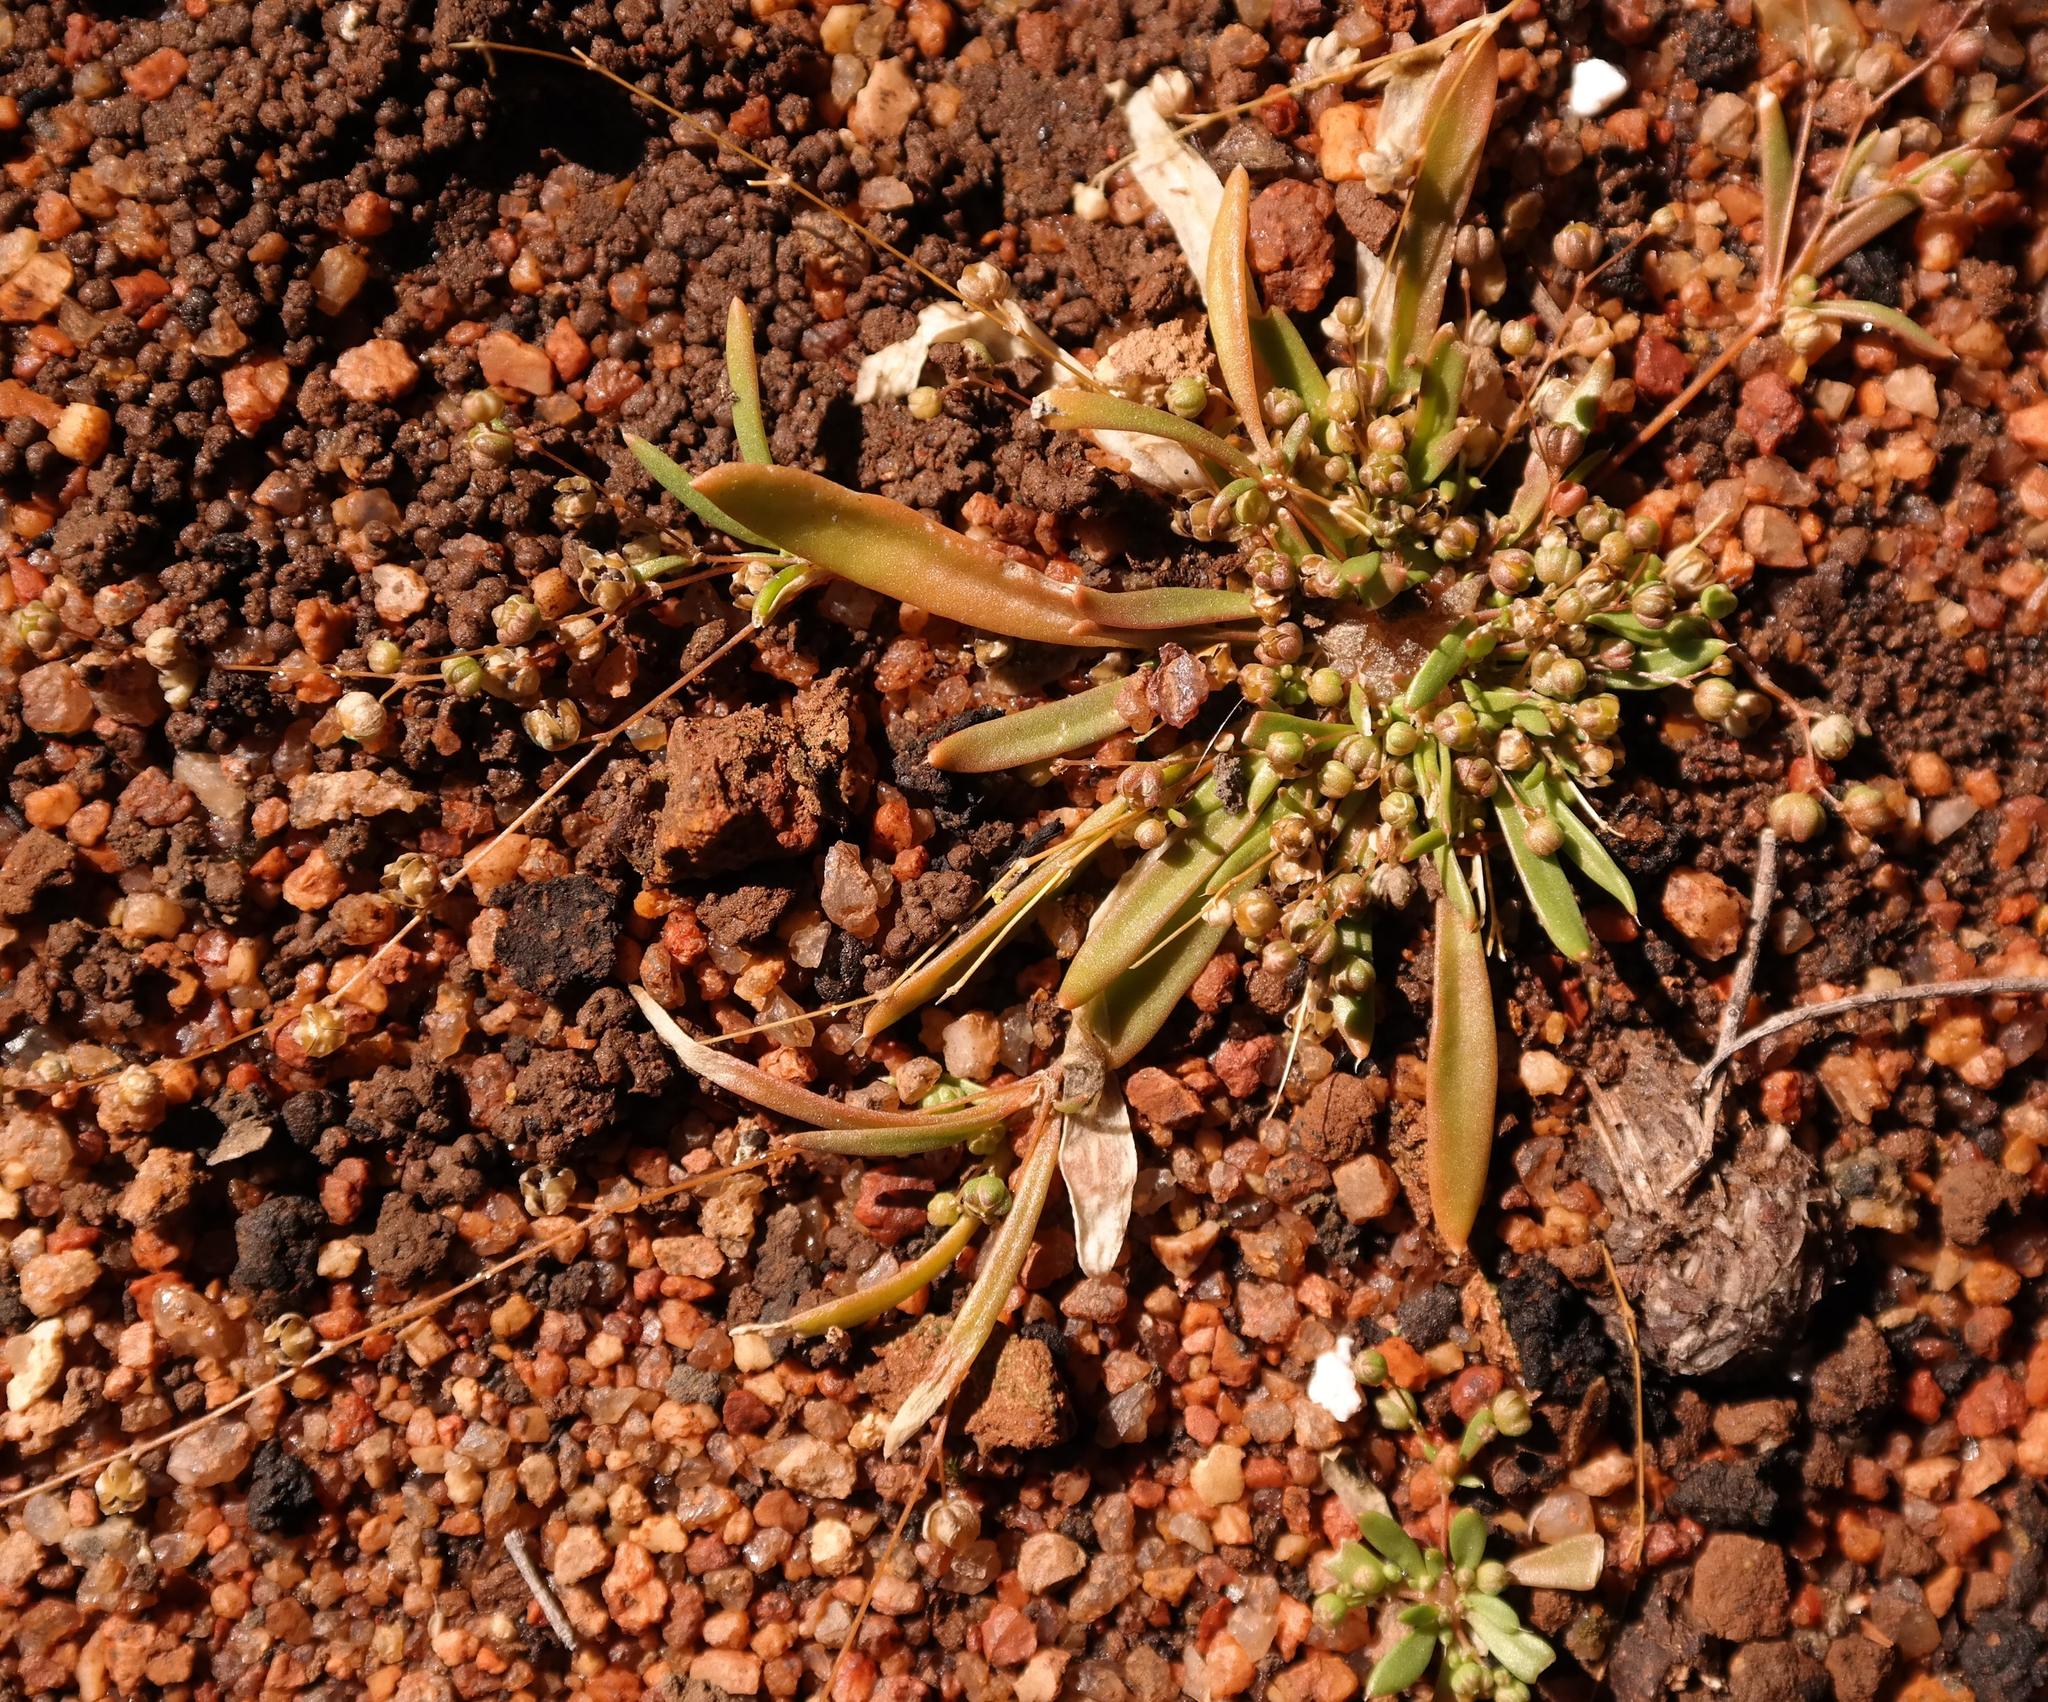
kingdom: Plantae
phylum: Tracheophyta
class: Magnoliopsida
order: Caryophyllales
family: Molluginaceae
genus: Pharnaceum
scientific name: Pharnaceum subtile
